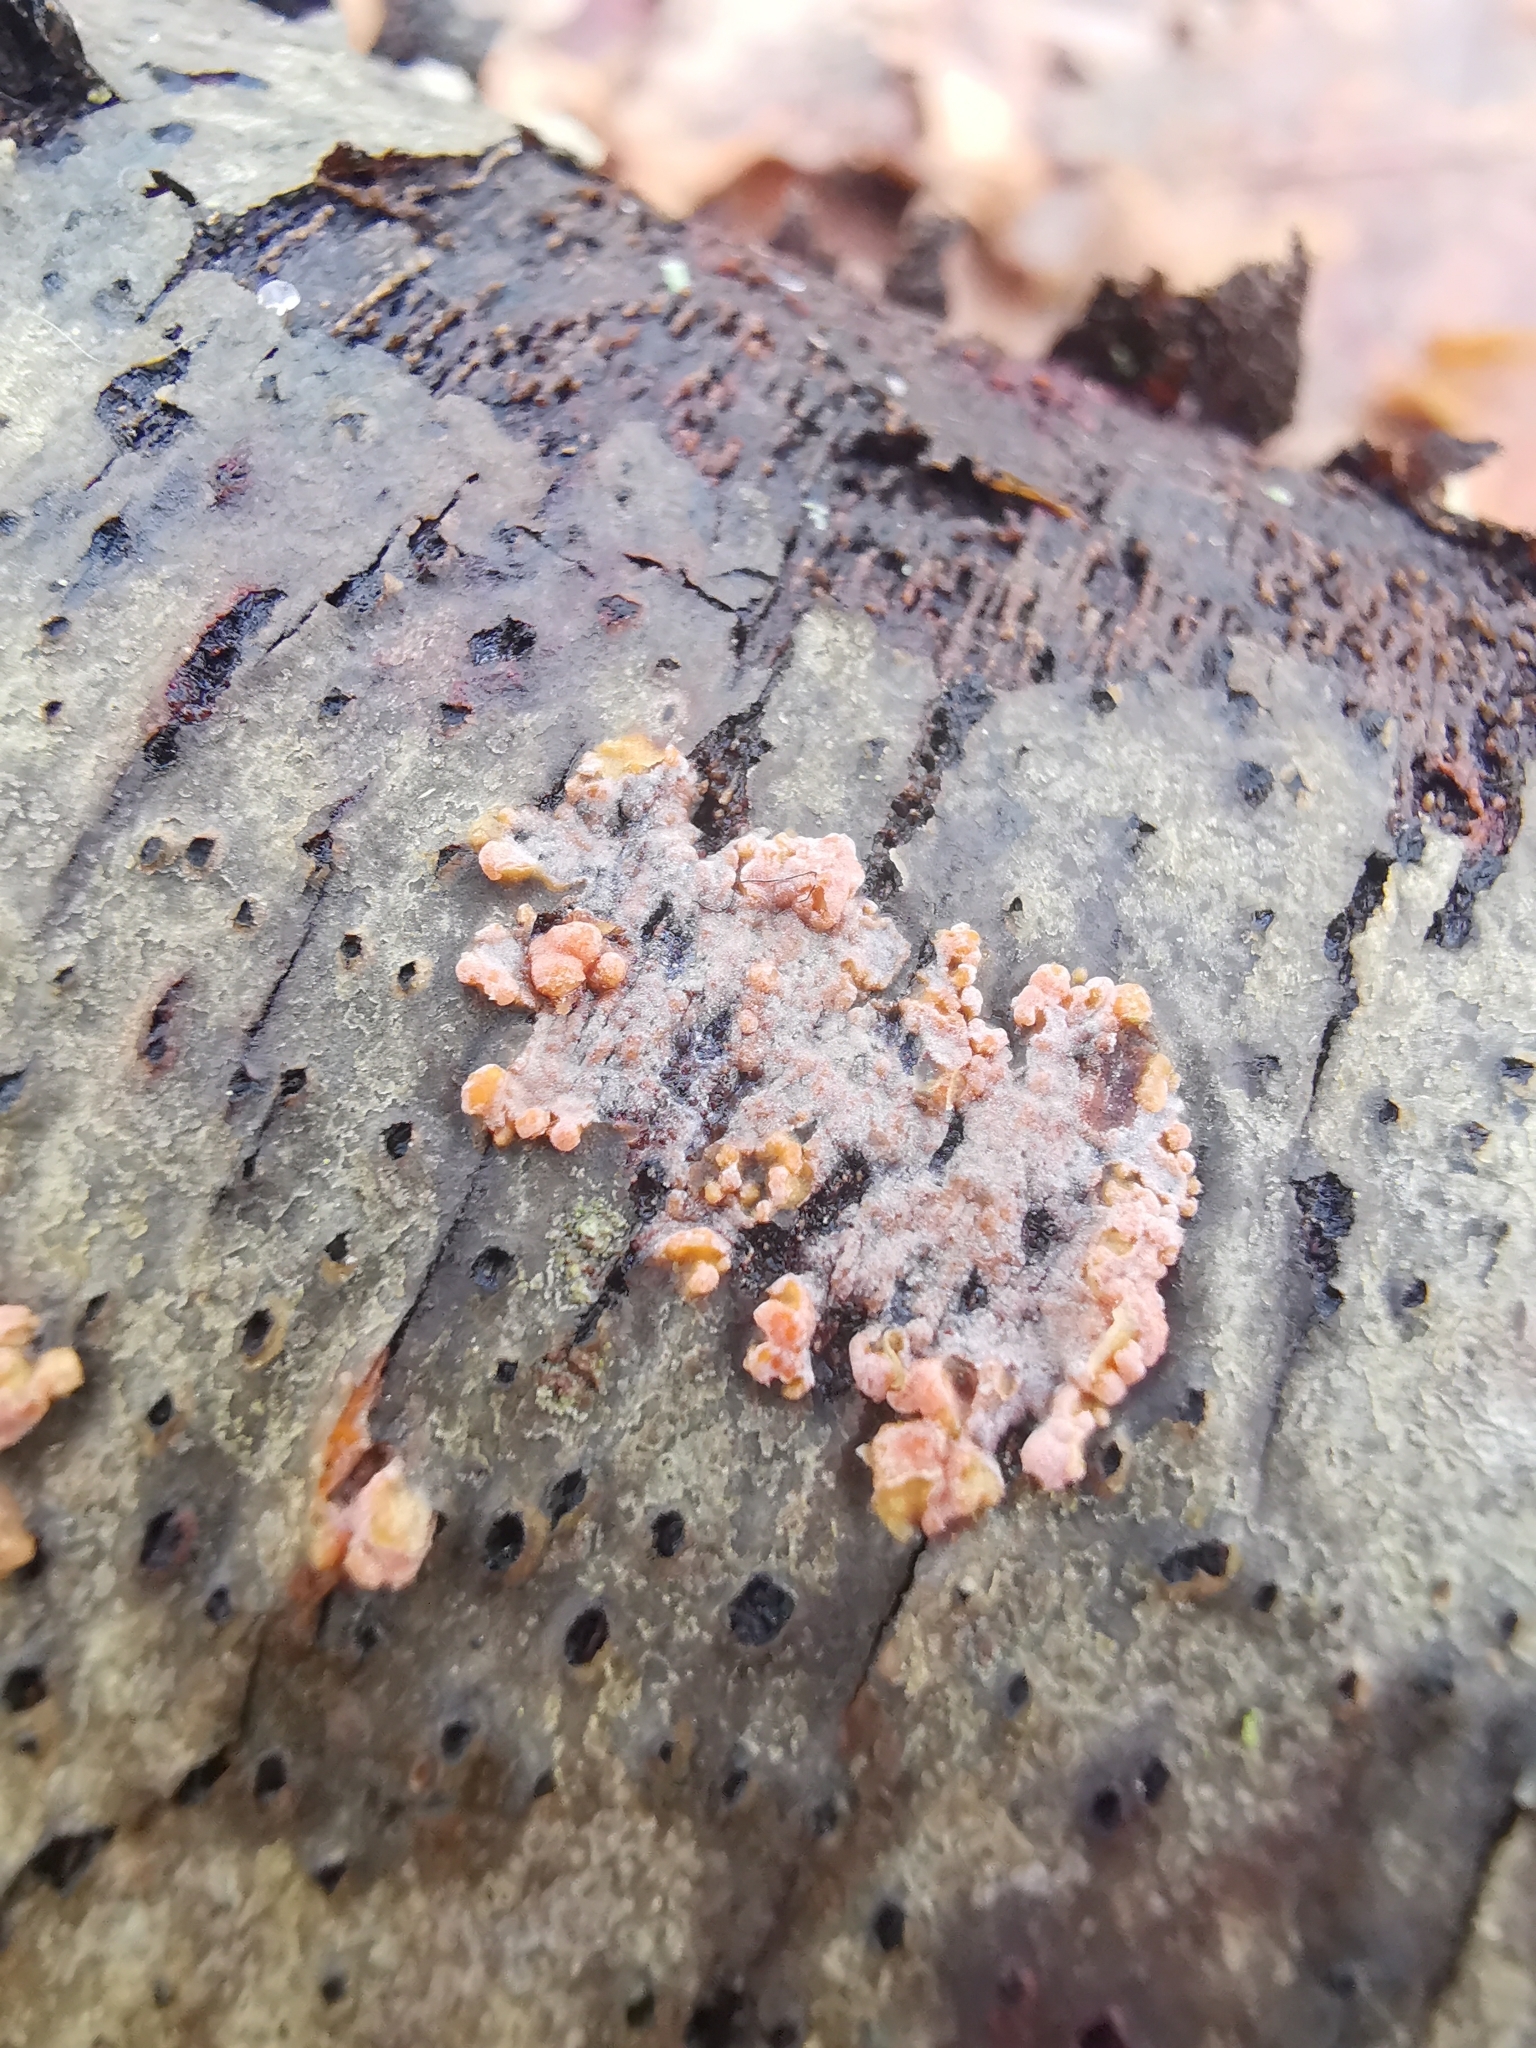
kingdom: Fungi
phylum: Basidiomycota
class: Agaricomycetes
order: Polyporales
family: Meruliaceae
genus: Phlebia
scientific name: Phlebia radiata
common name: Wrinkled crust
